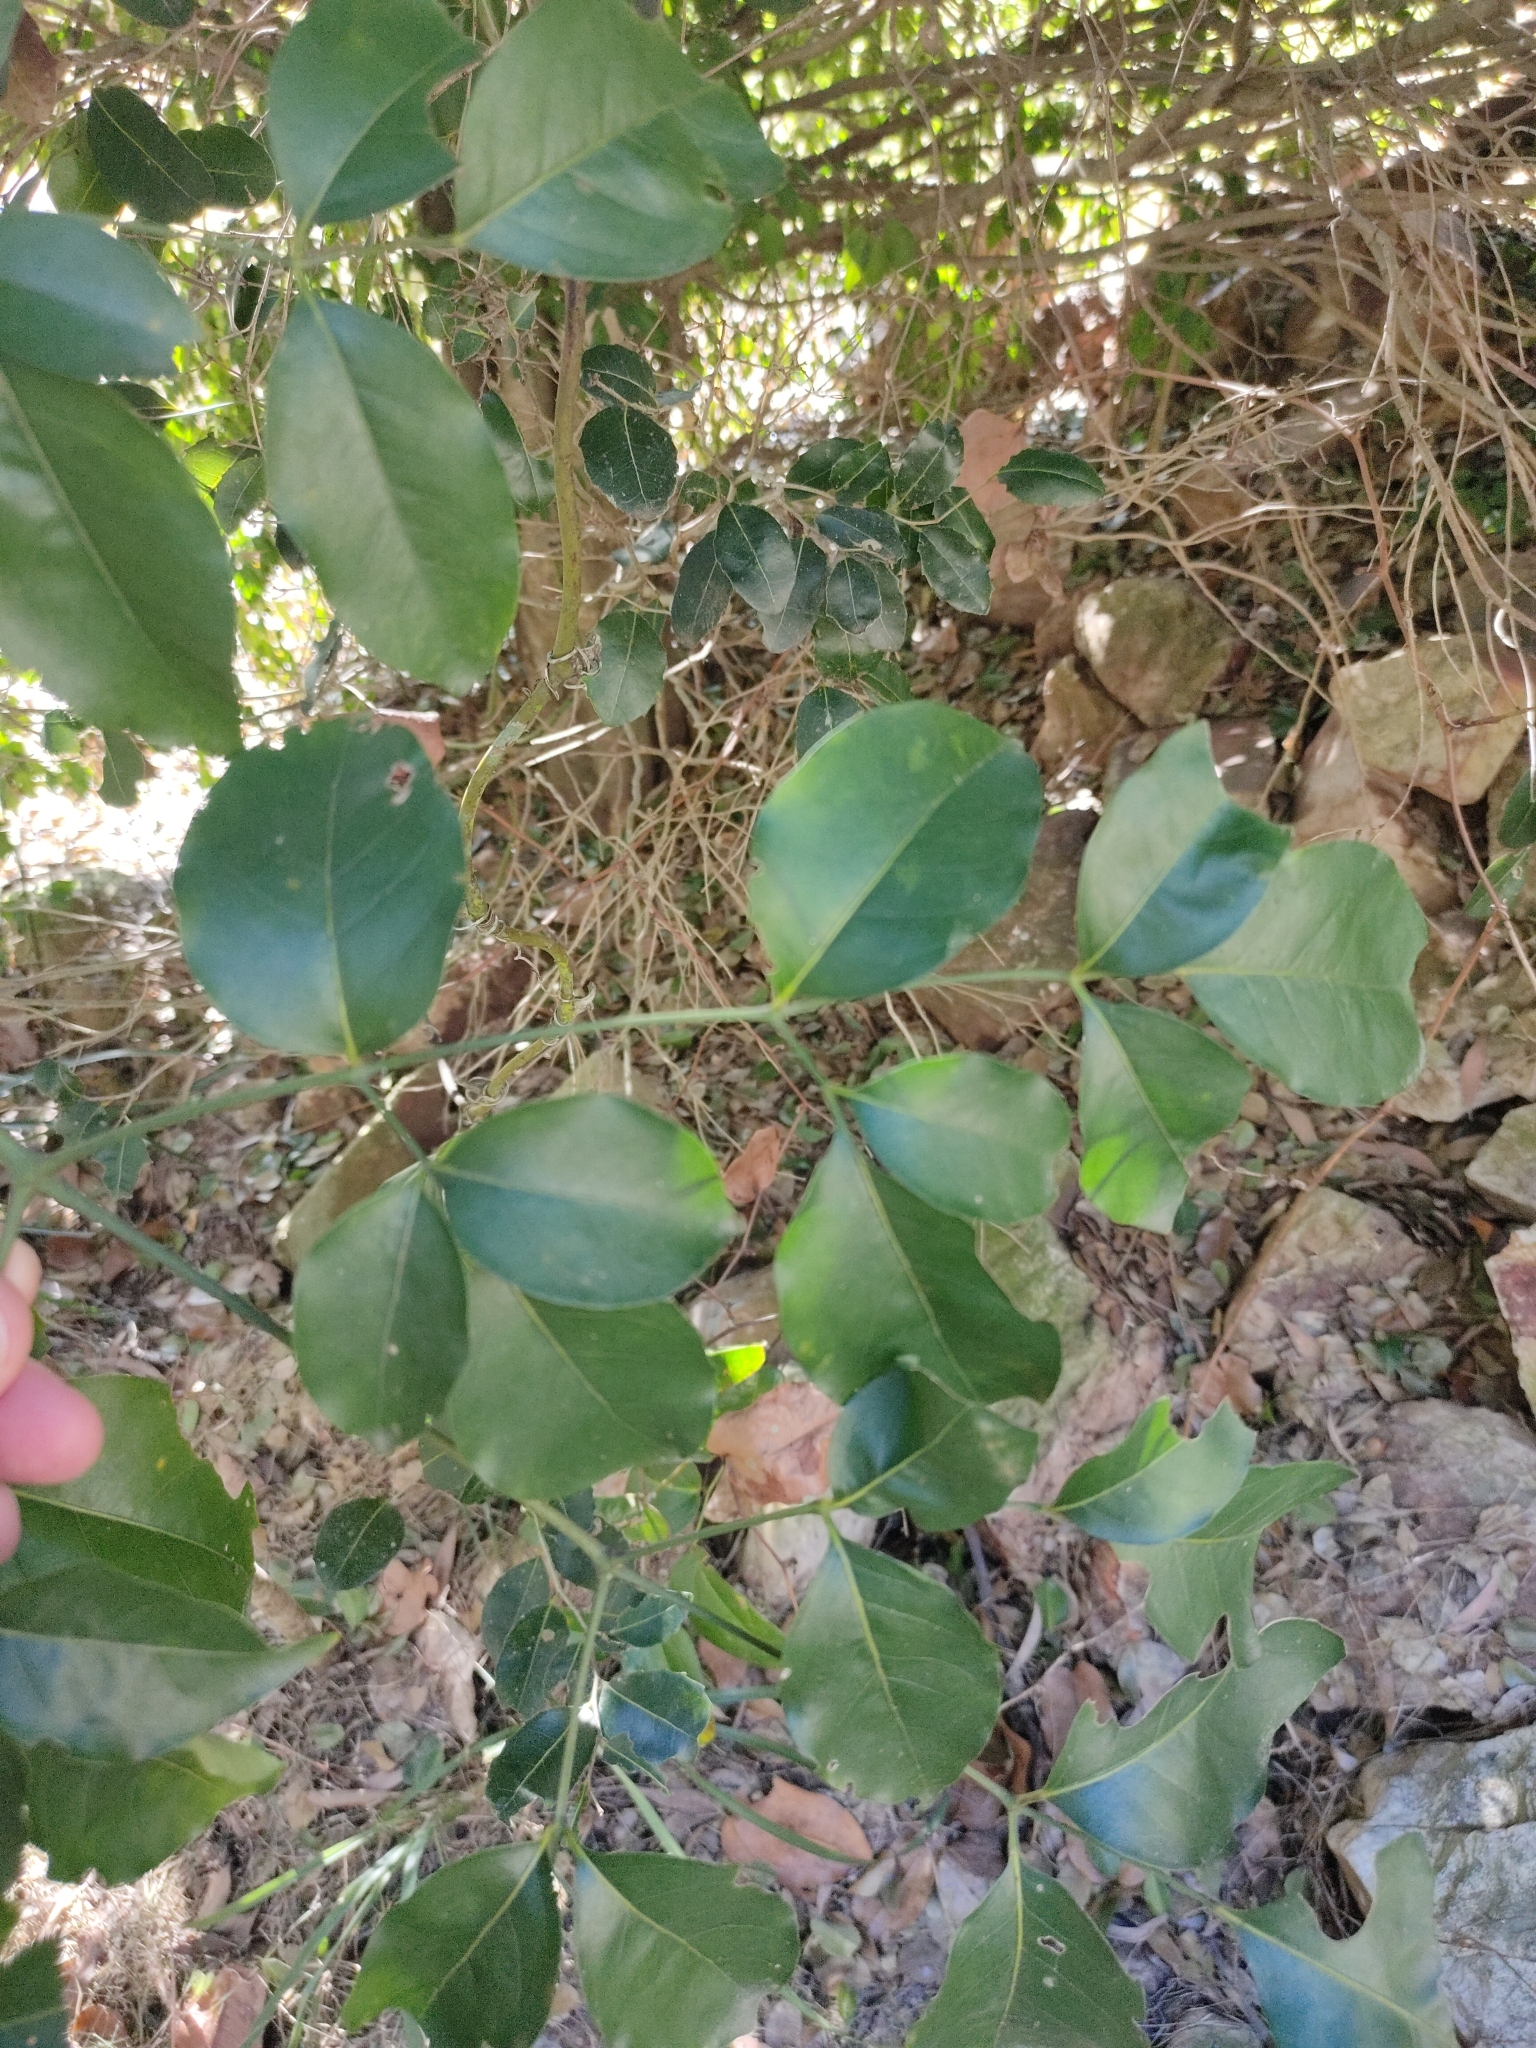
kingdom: Plantae
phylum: Tracheophyta
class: Magnoliopsida
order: Apiales
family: Araliaceae
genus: Polyscias
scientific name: Polyscias elegans
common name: Mowbulan whitewood
